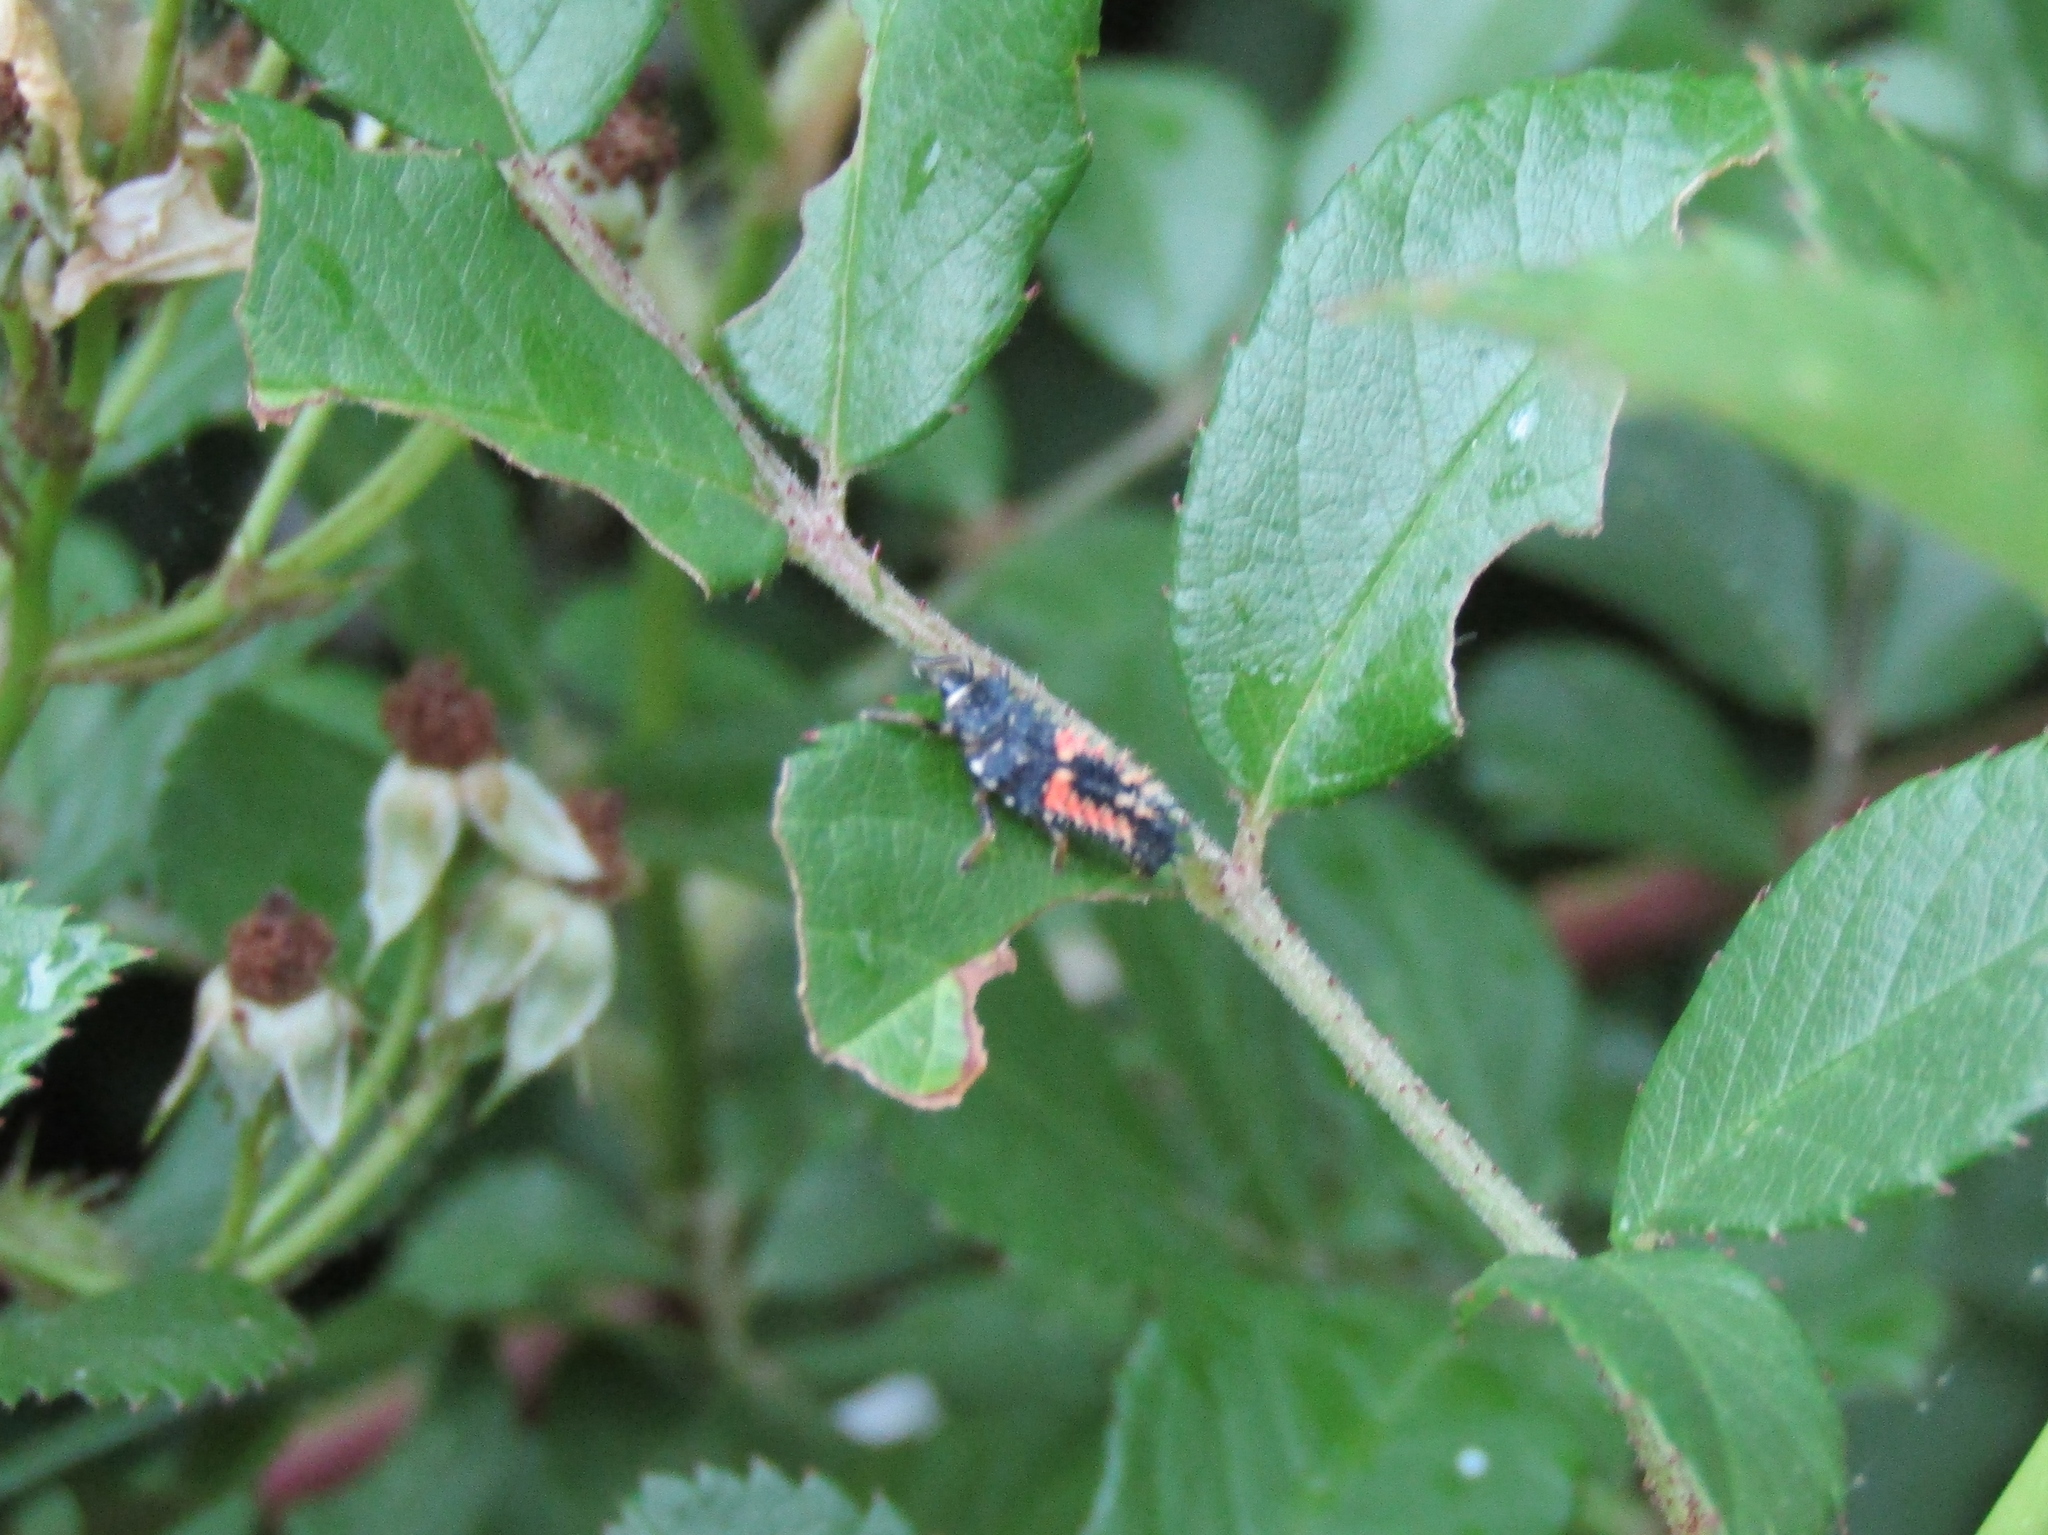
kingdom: Animalia
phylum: Arthropoda
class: Insecta
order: Coleoptera
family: Coccinellidae
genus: Harmonia
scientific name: Harmonia axyridis
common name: Harlequin ladybird
